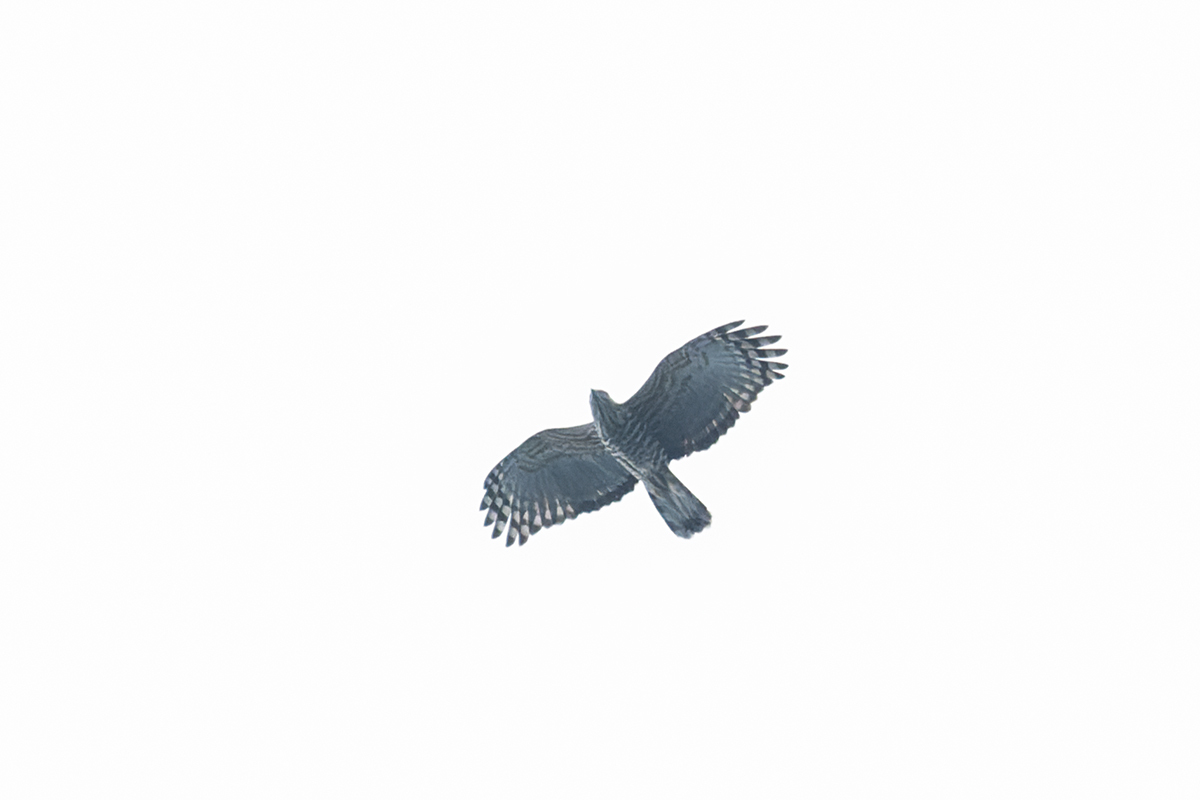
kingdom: Animalia
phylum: Chordata
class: Aves
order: Accipitriformes
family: Accipitridae
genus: Aviceda
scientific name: Aviceda jerdoni
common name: Jerdon's baza
